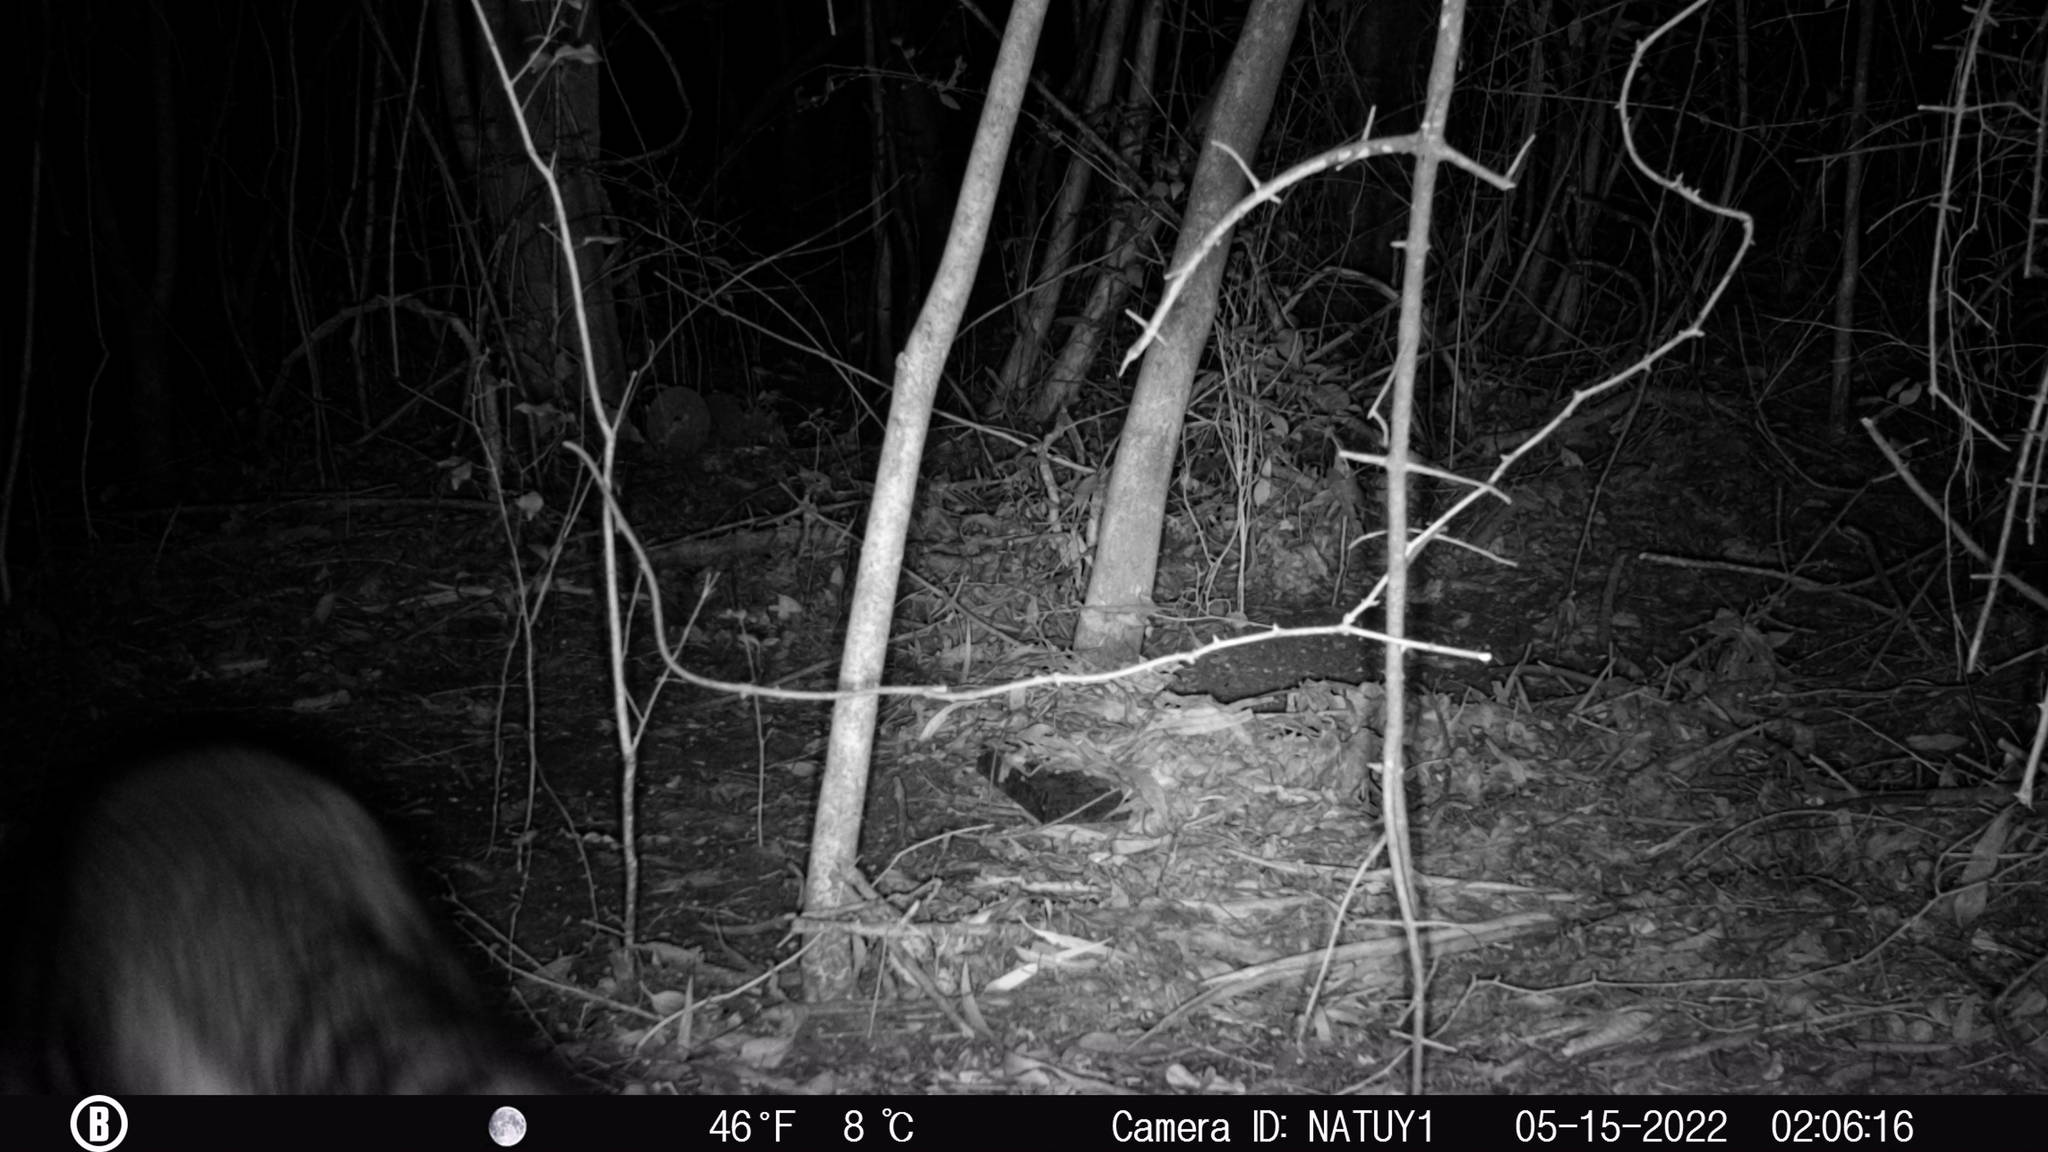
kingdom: Animalia
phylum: Chordata
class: Mammalia
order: Carnivora
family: Procyonidae
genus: Procyon
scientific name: Procyon cancrivorus
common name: Crab-eating raccoon
